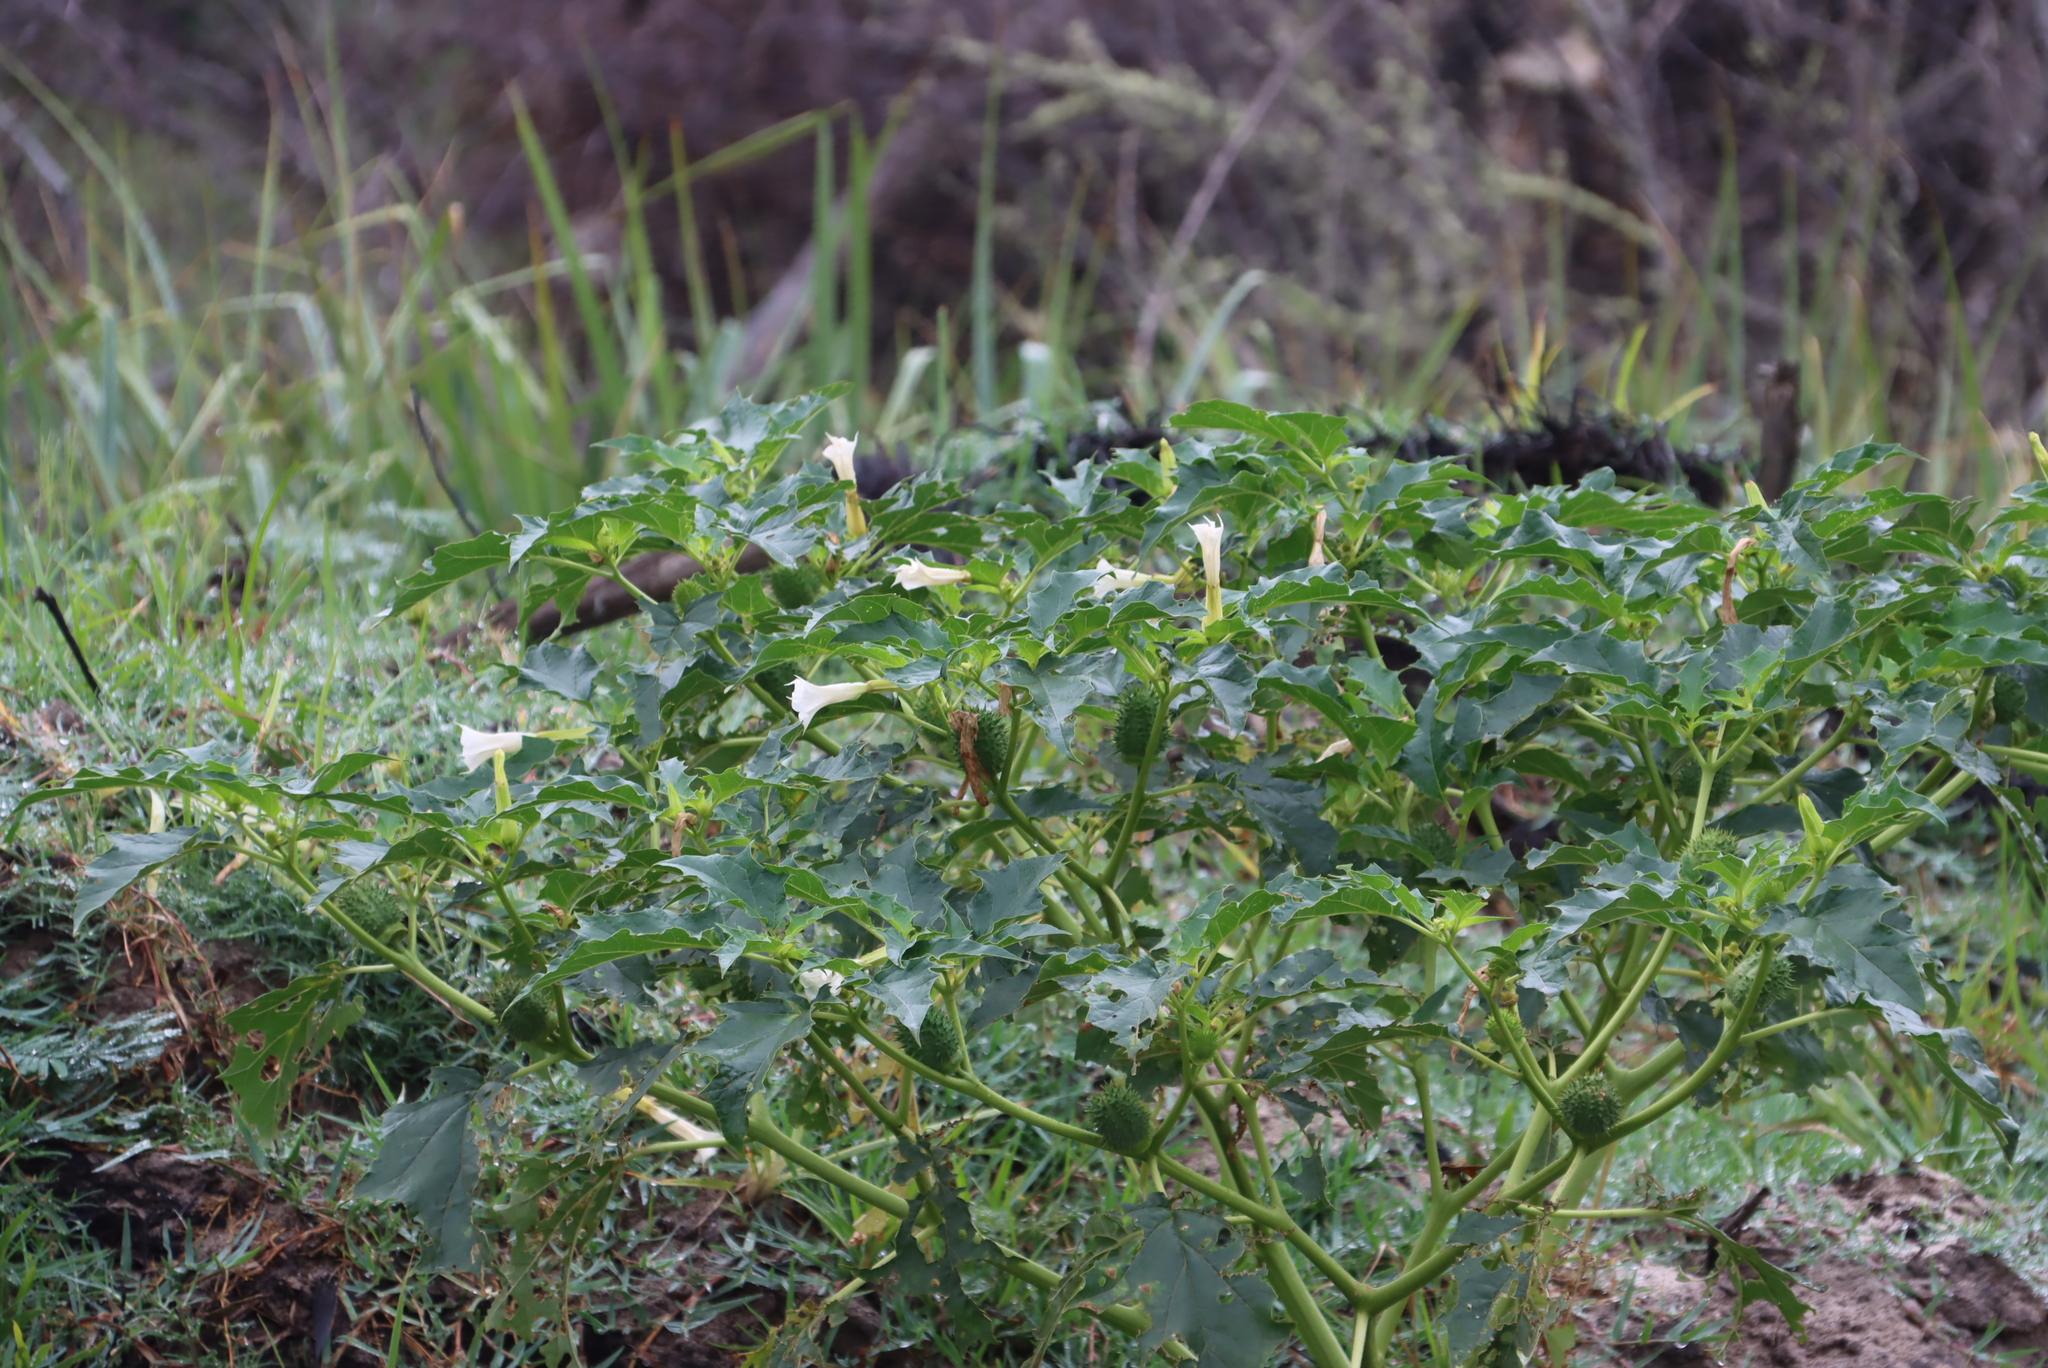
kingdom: Plantae
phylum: Tracheophyta
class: Magnoliopsida
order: Solanales
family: Solanaceae
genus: Datura
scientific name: Datura stramonium
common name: Thorn-apple
